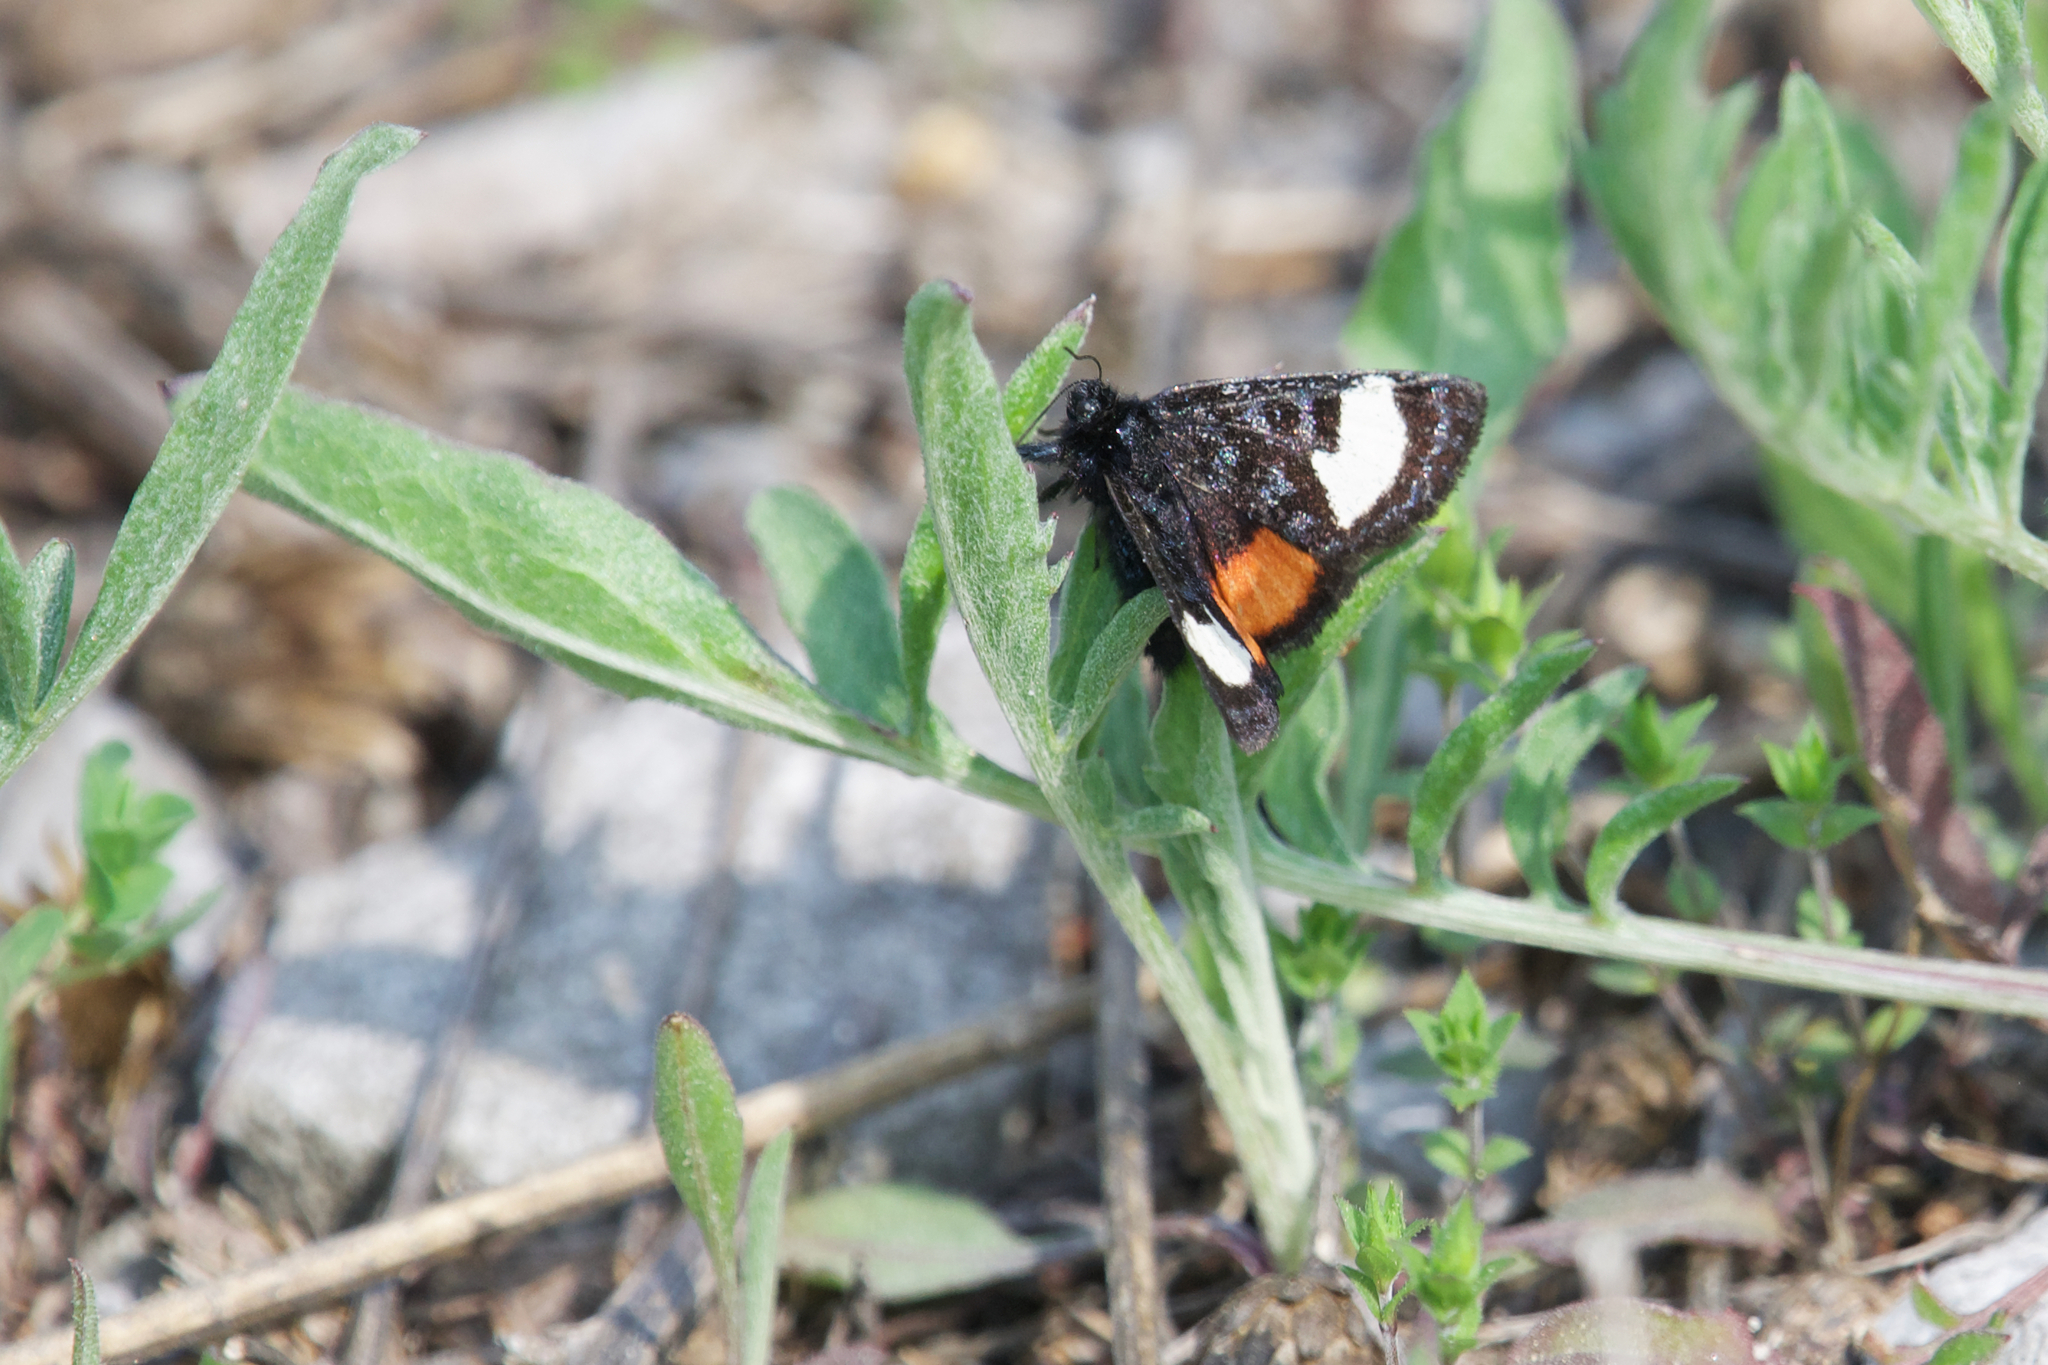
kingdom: Animalia
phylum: Arthropoda
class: Insecta
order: Lepidoptera
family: Noctuidae
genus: Psychomorpha
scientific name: Psychomorpha epimenis
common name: Grapevine epimenis moth
